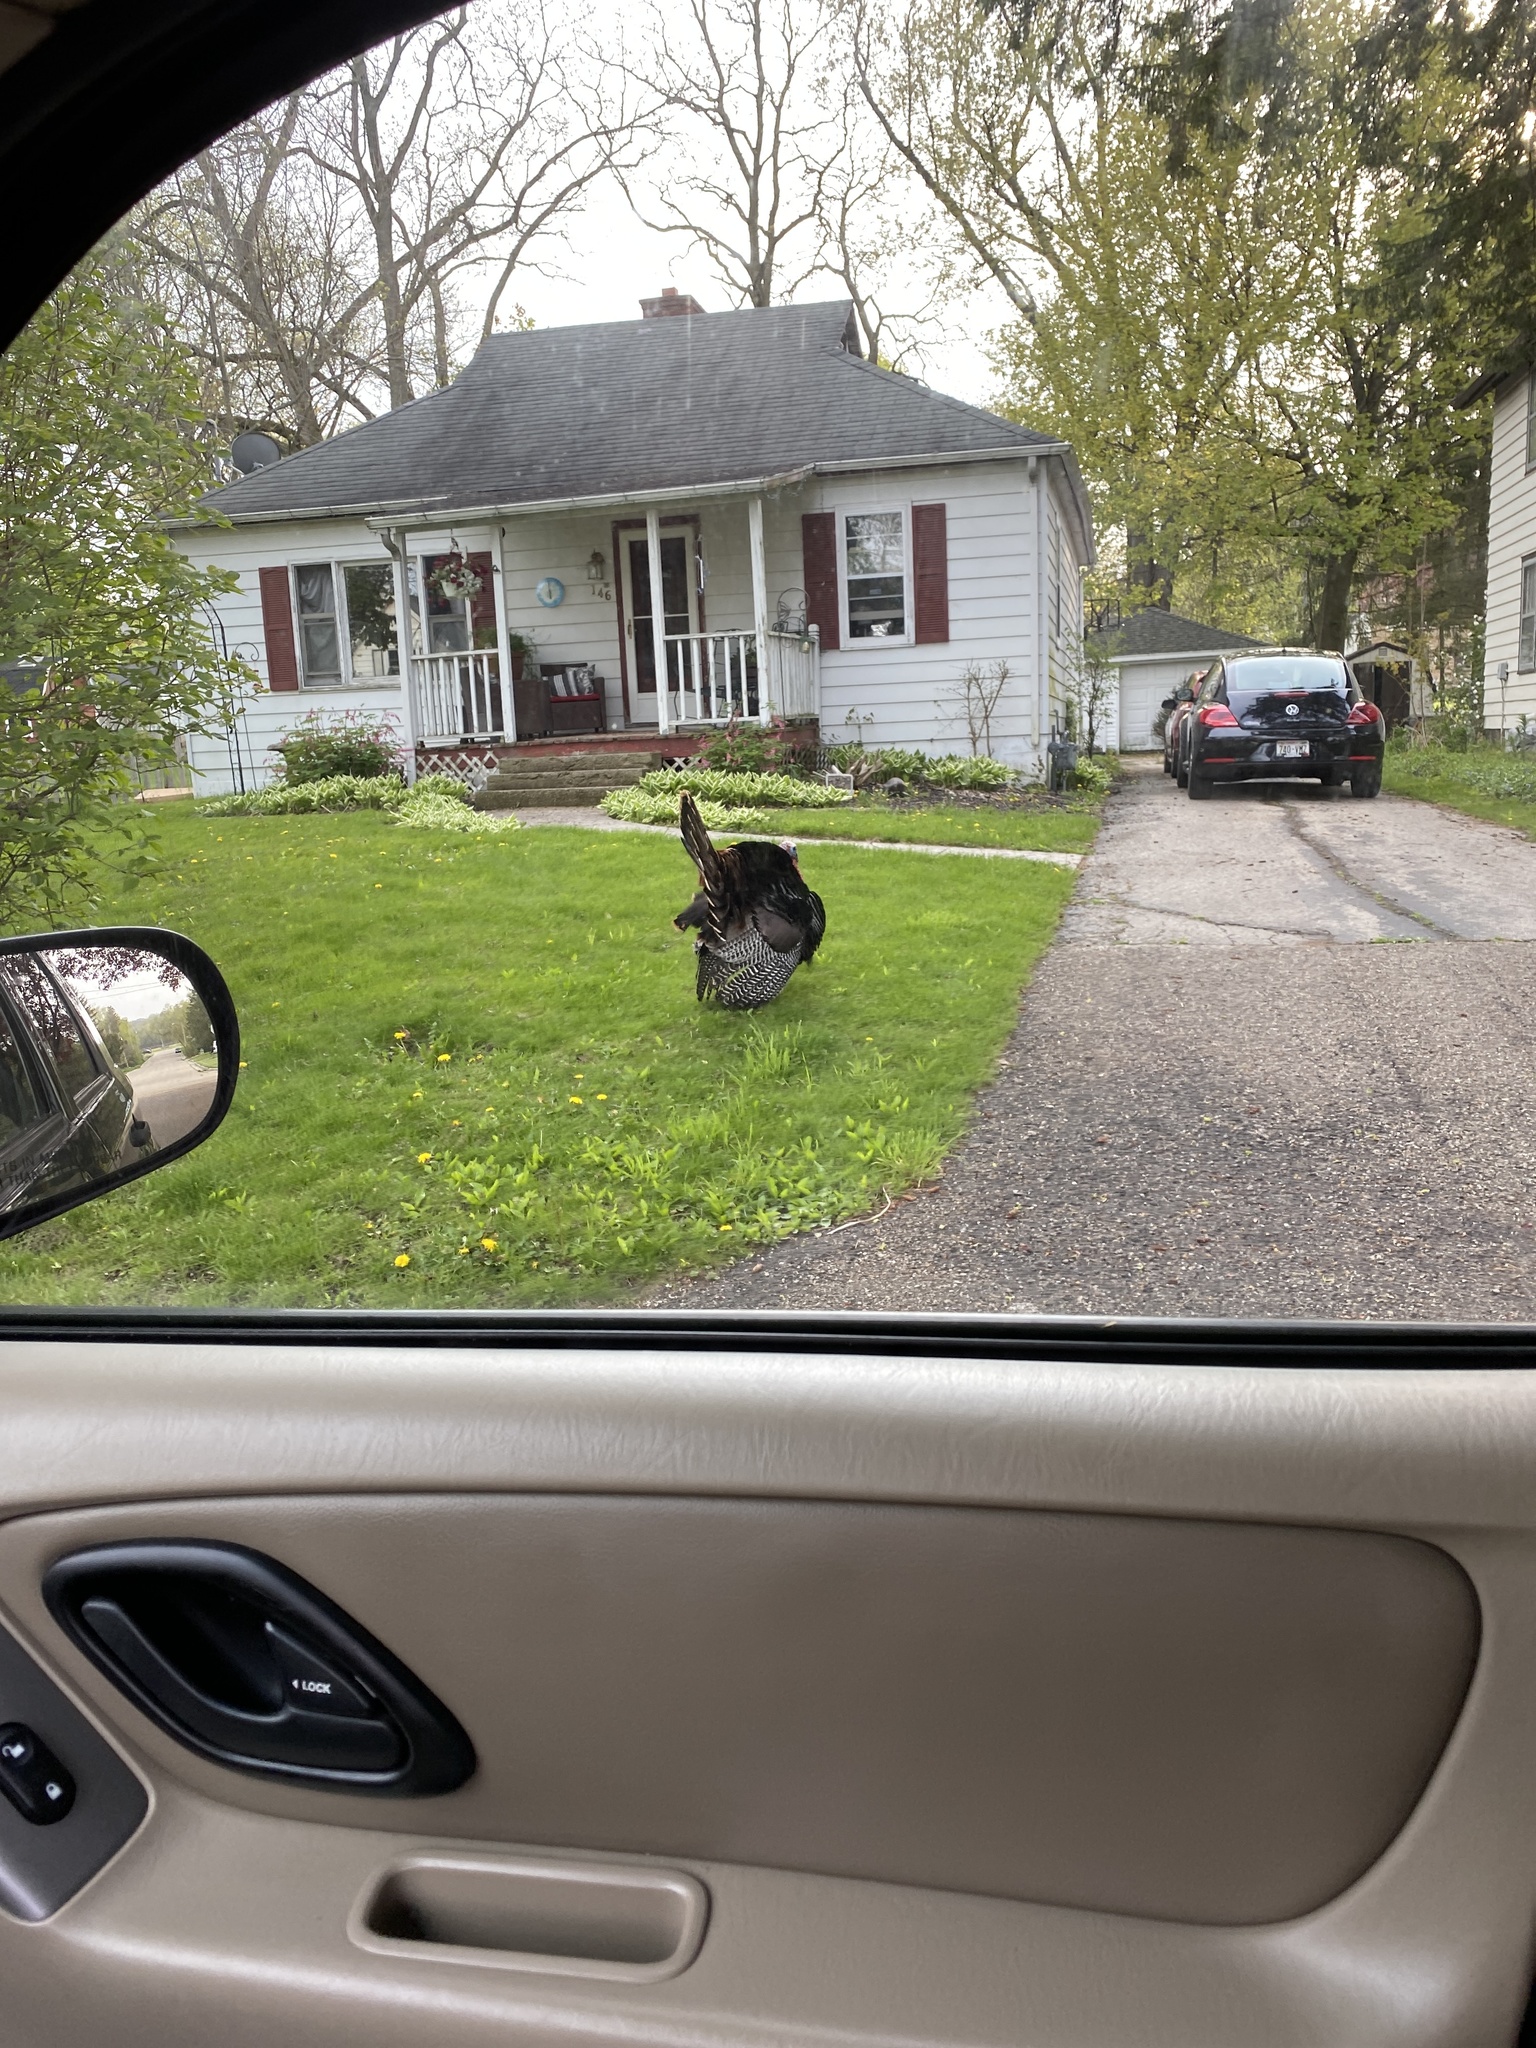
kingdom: Animalia
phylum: Chordata
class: Aves
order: Galliformes
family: Phasianidae
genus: Meleagris
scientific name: Meleagris gallopavo
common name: Wild turkey
